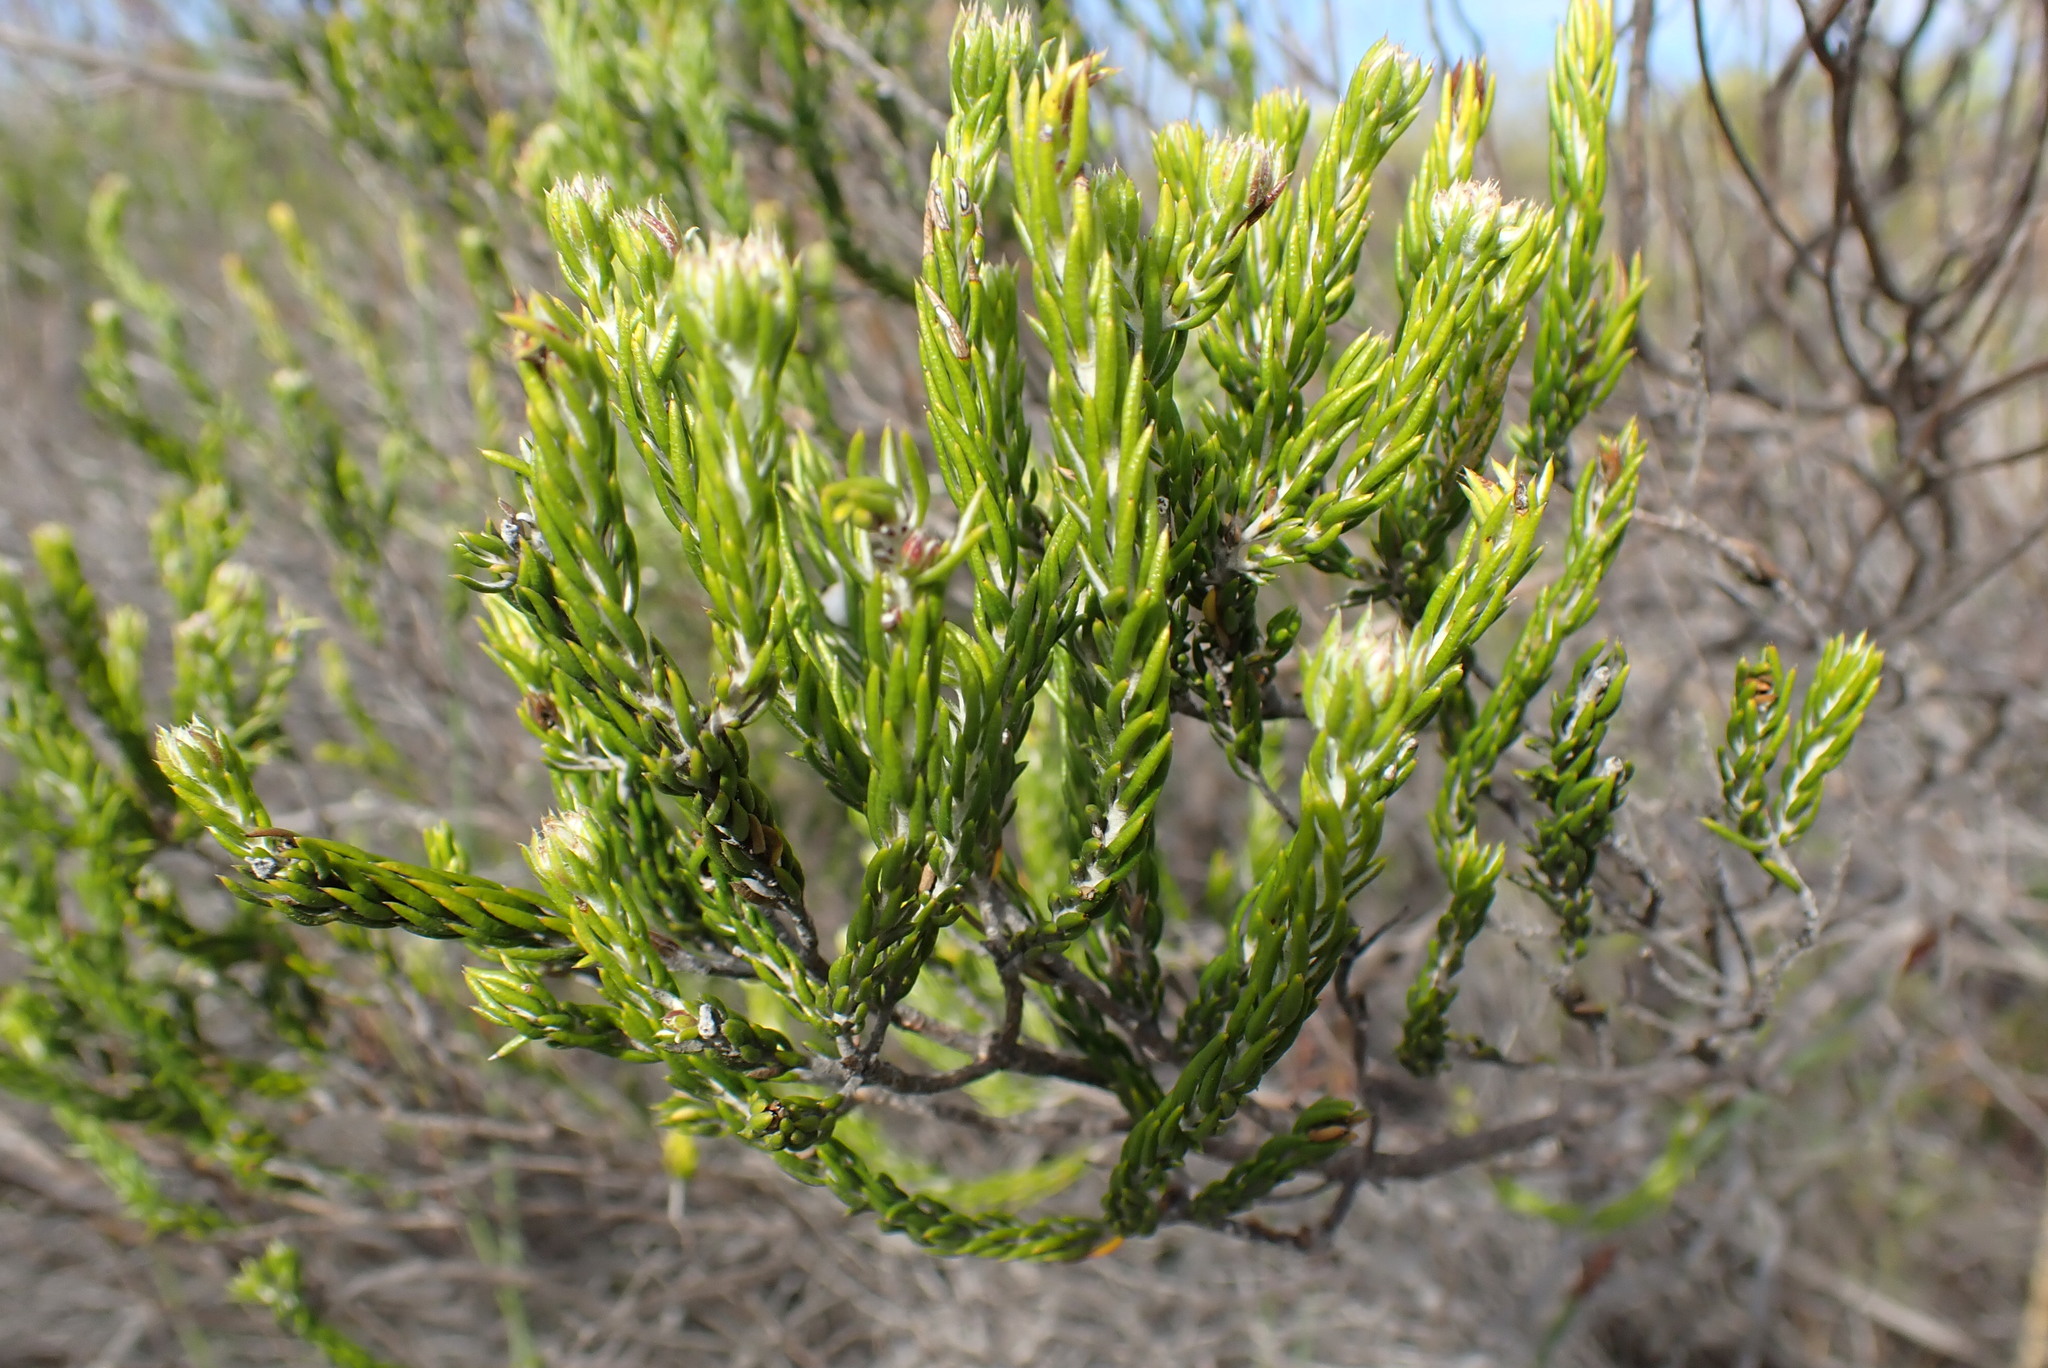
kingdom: Plantae
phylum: Tracheophyta
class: Magnoliopsida
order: Asterales
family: Asteraceae
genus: Metalasia
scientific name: Metalasia pallida
